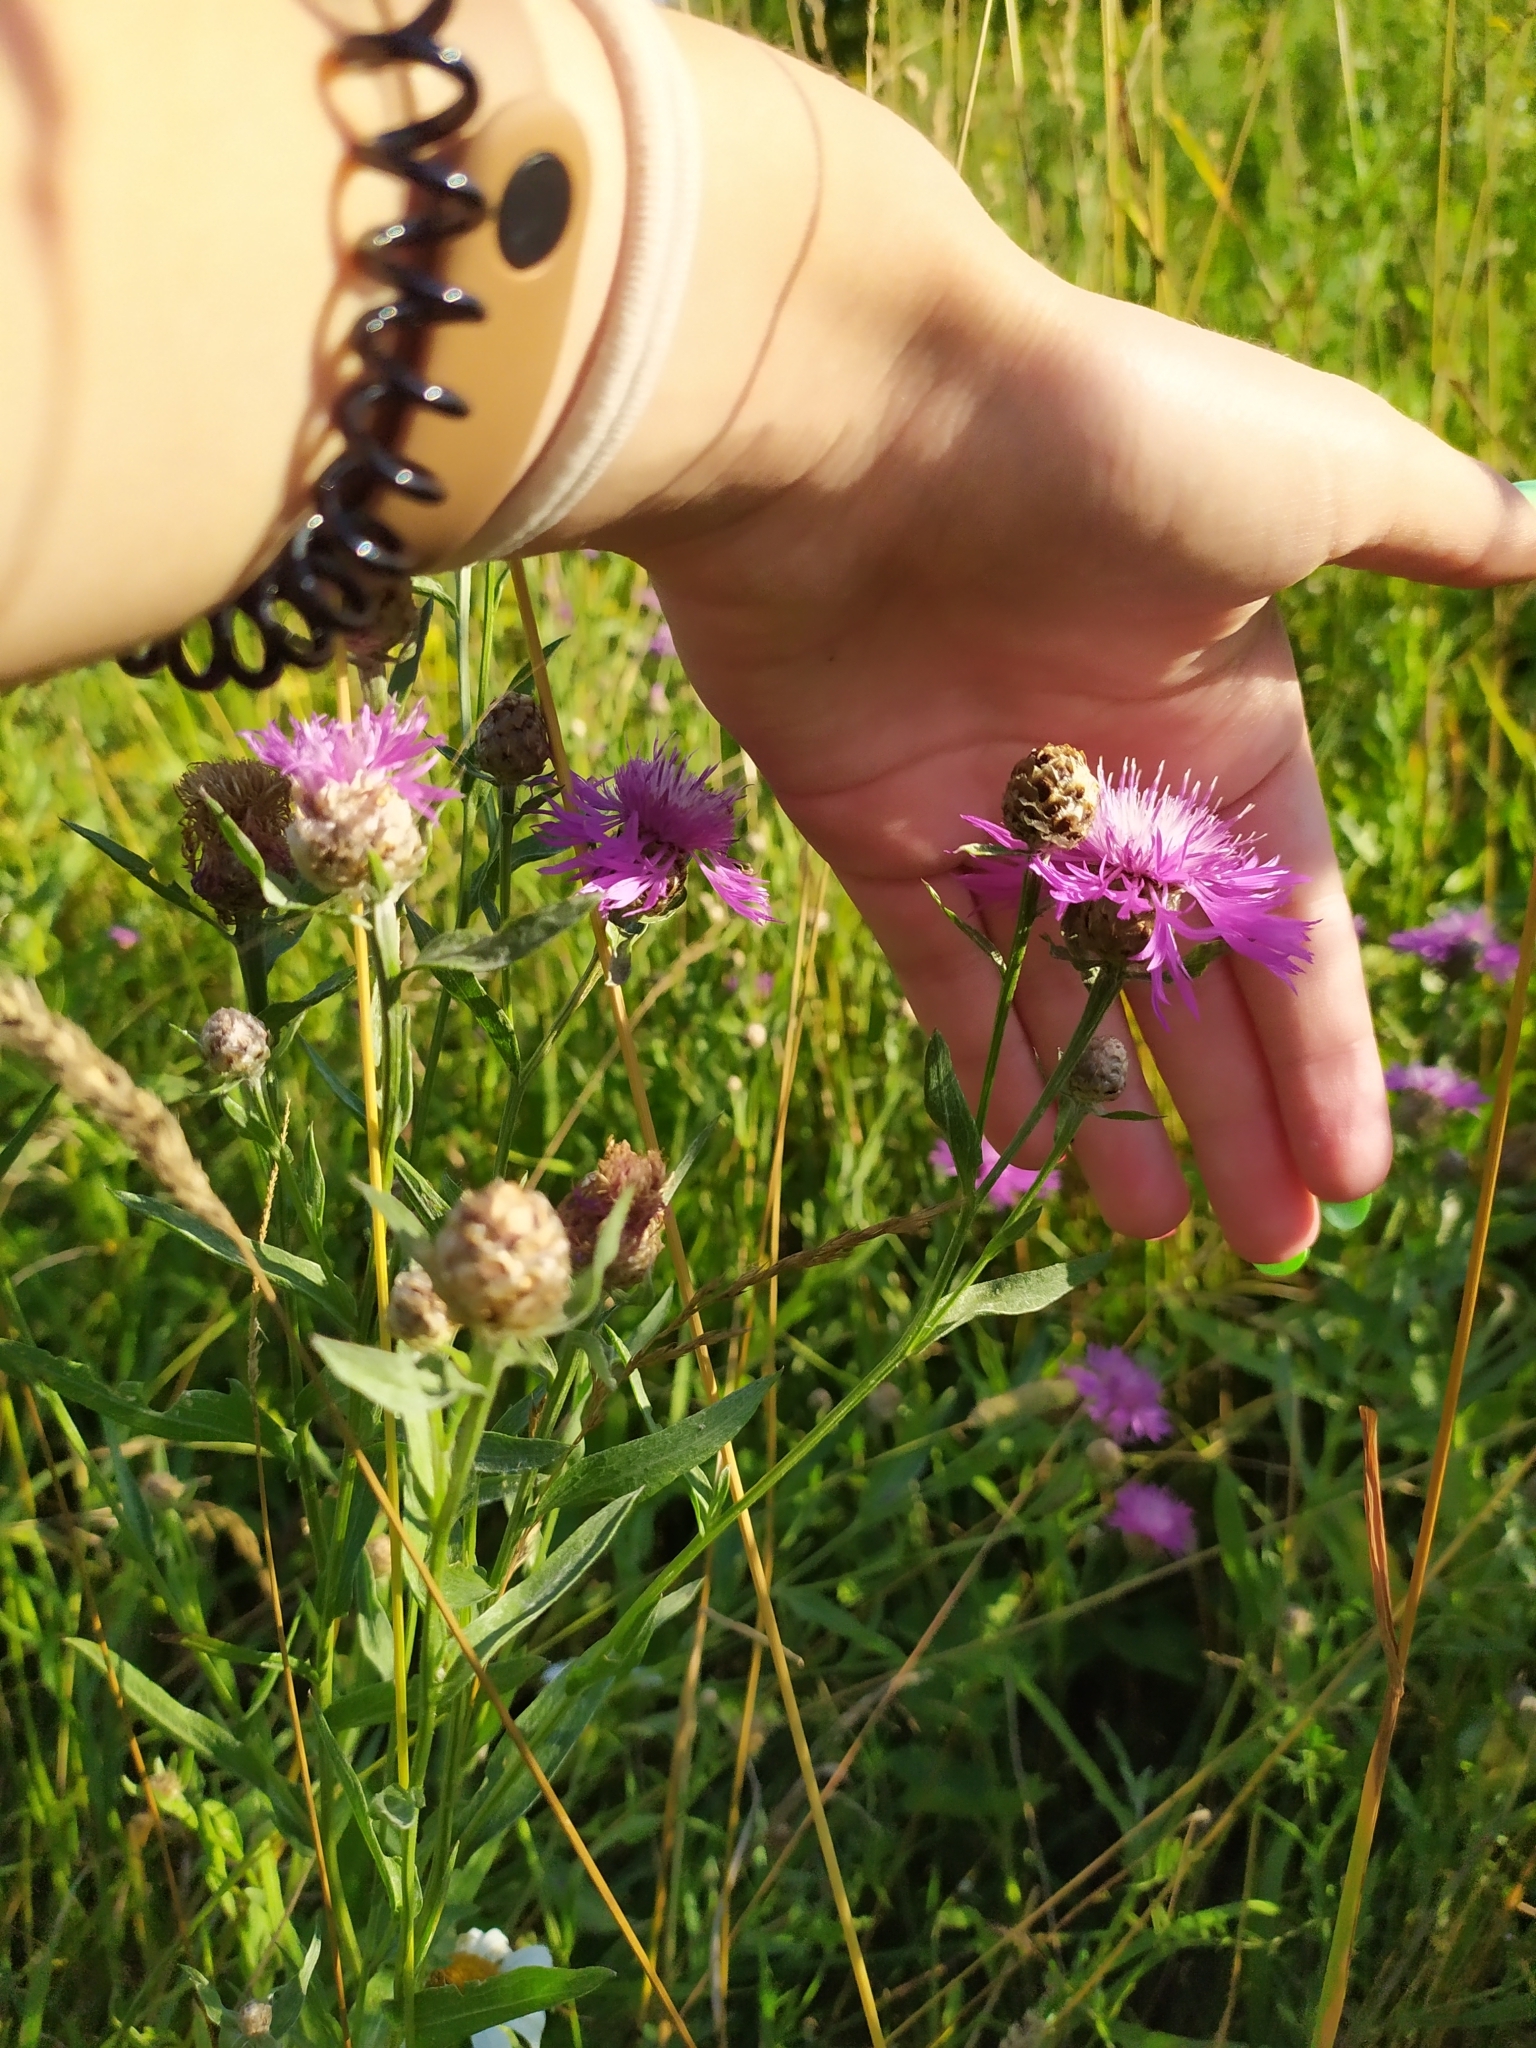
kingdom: Plantae
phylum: Tracheophyta
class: Magnoliopsida
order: Asterales
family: Asteraceae
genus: Centaurea
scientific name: Centaurea jacea
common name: Brown knapweed
